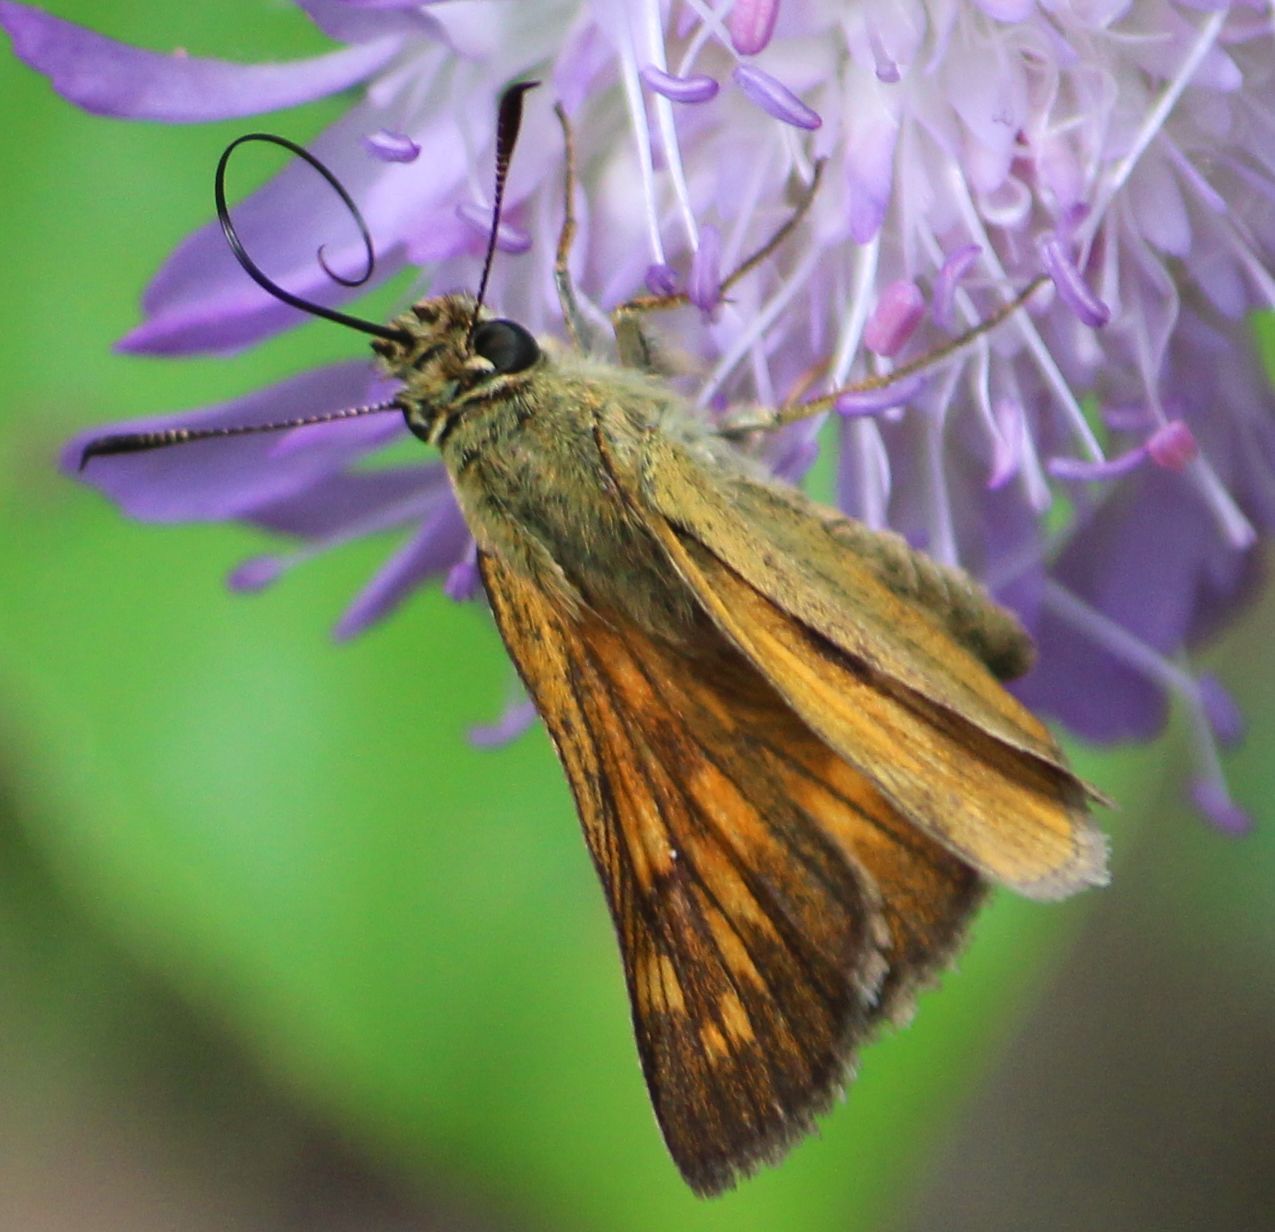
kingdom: Animalia
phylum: Arthropoda
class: Insecta
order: Lepidoptera
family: Hesperiidae
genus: Ochlodes
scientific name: Ochlodes venata
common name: Large skipper
